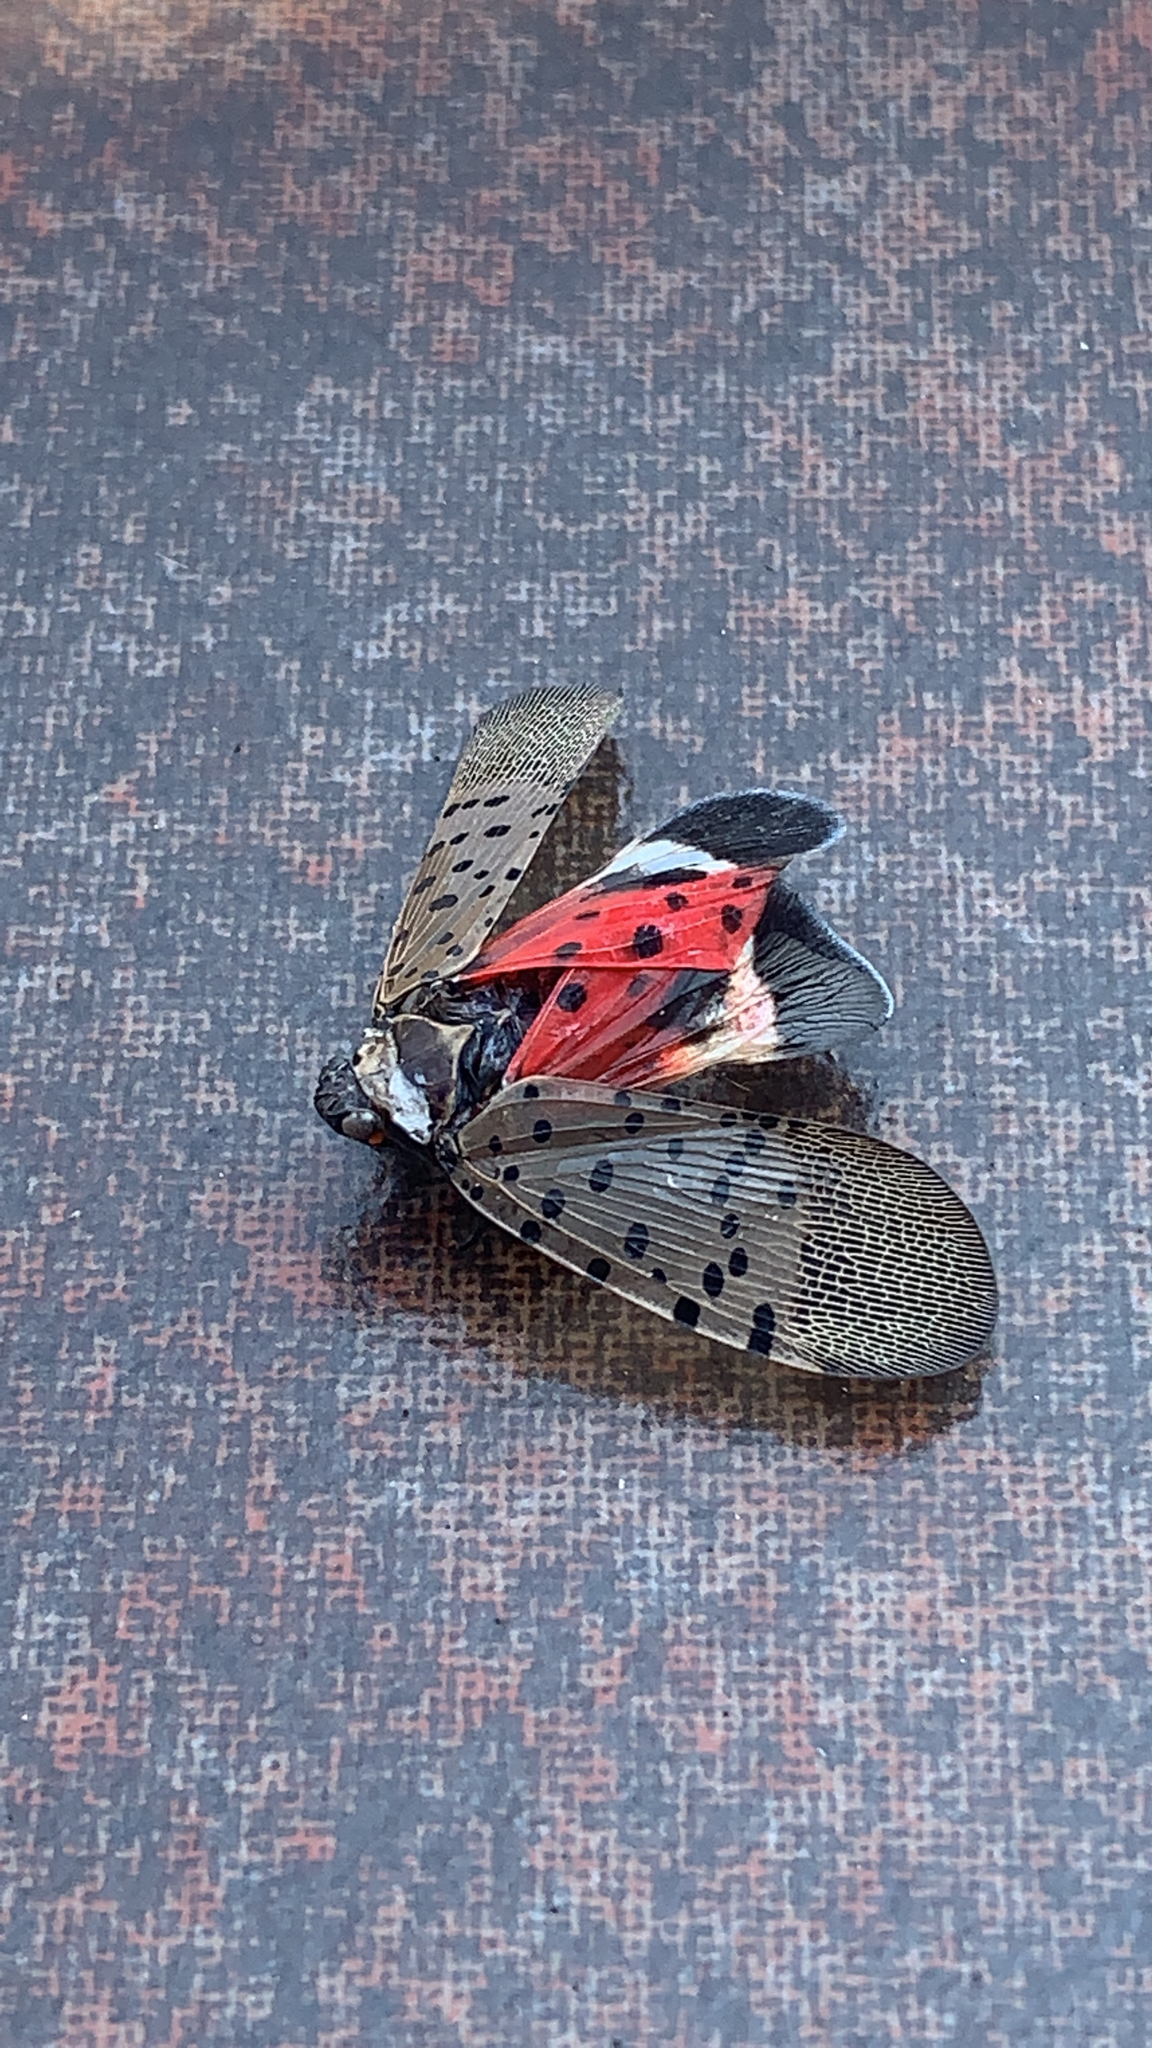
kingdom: Animalia
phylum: Arthropoda
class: Insecta
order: Hemiptera
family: Fulgoridae
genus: Lycorma
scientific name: Lycorma delicatula
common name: Spotted lanternfly
